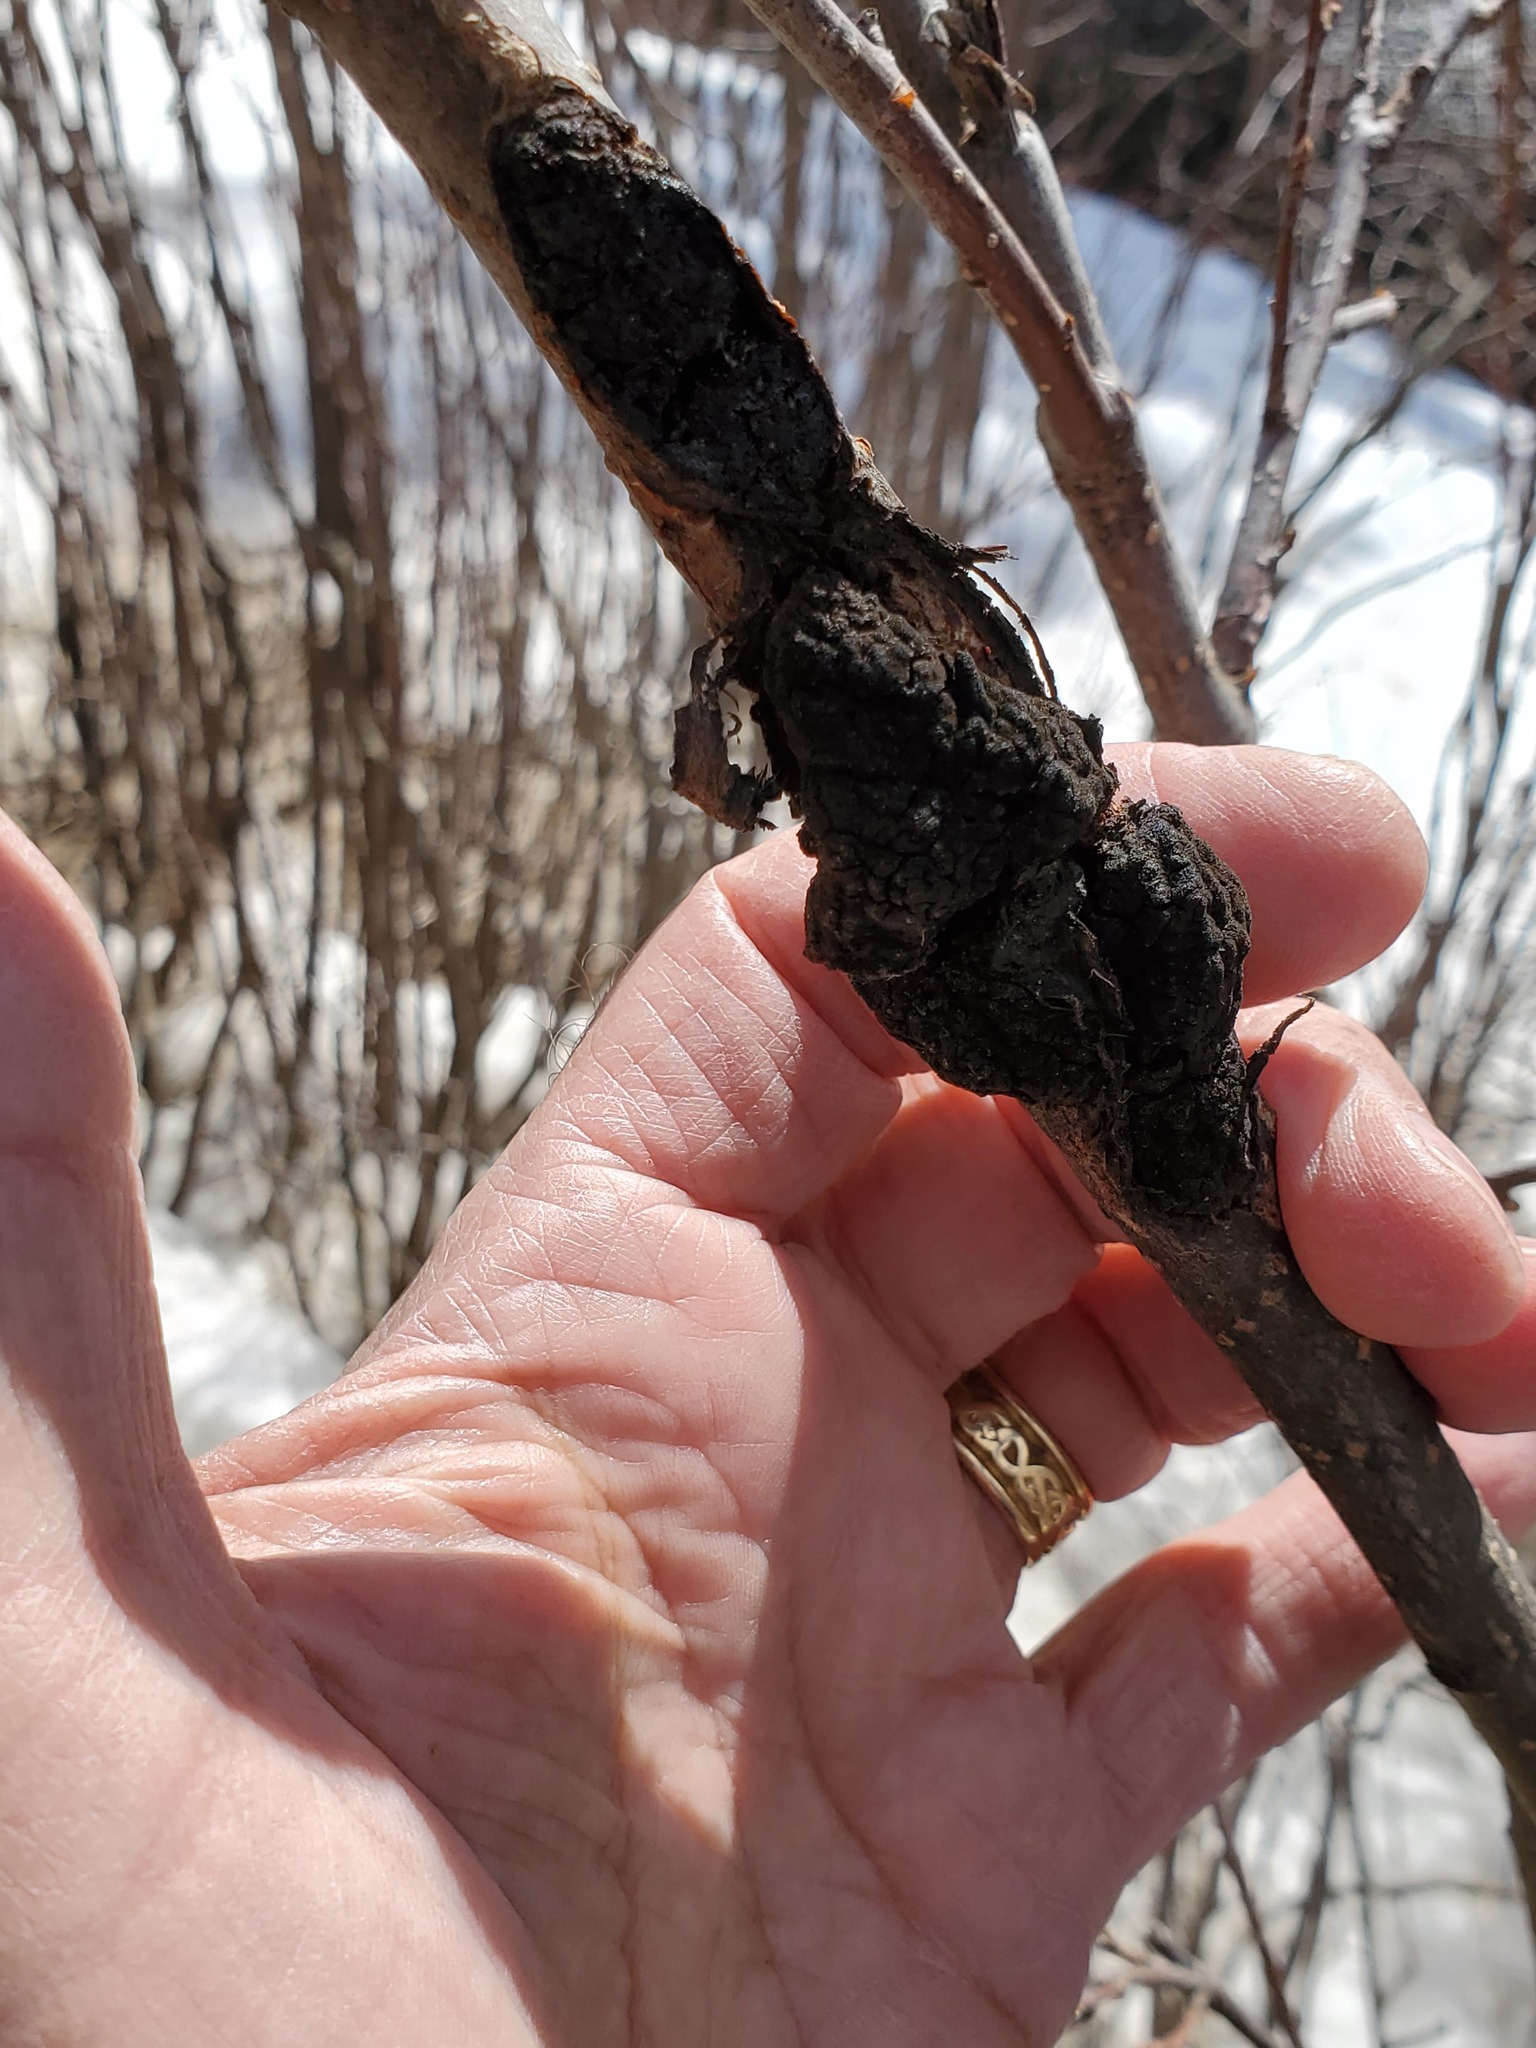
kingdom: Fungi
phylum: Ascomycota
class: Dothideomycetes
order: Venturiales
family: Venturiaceae
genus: Apiosporina
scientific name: Apiosporina morbosa
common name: Black knot
